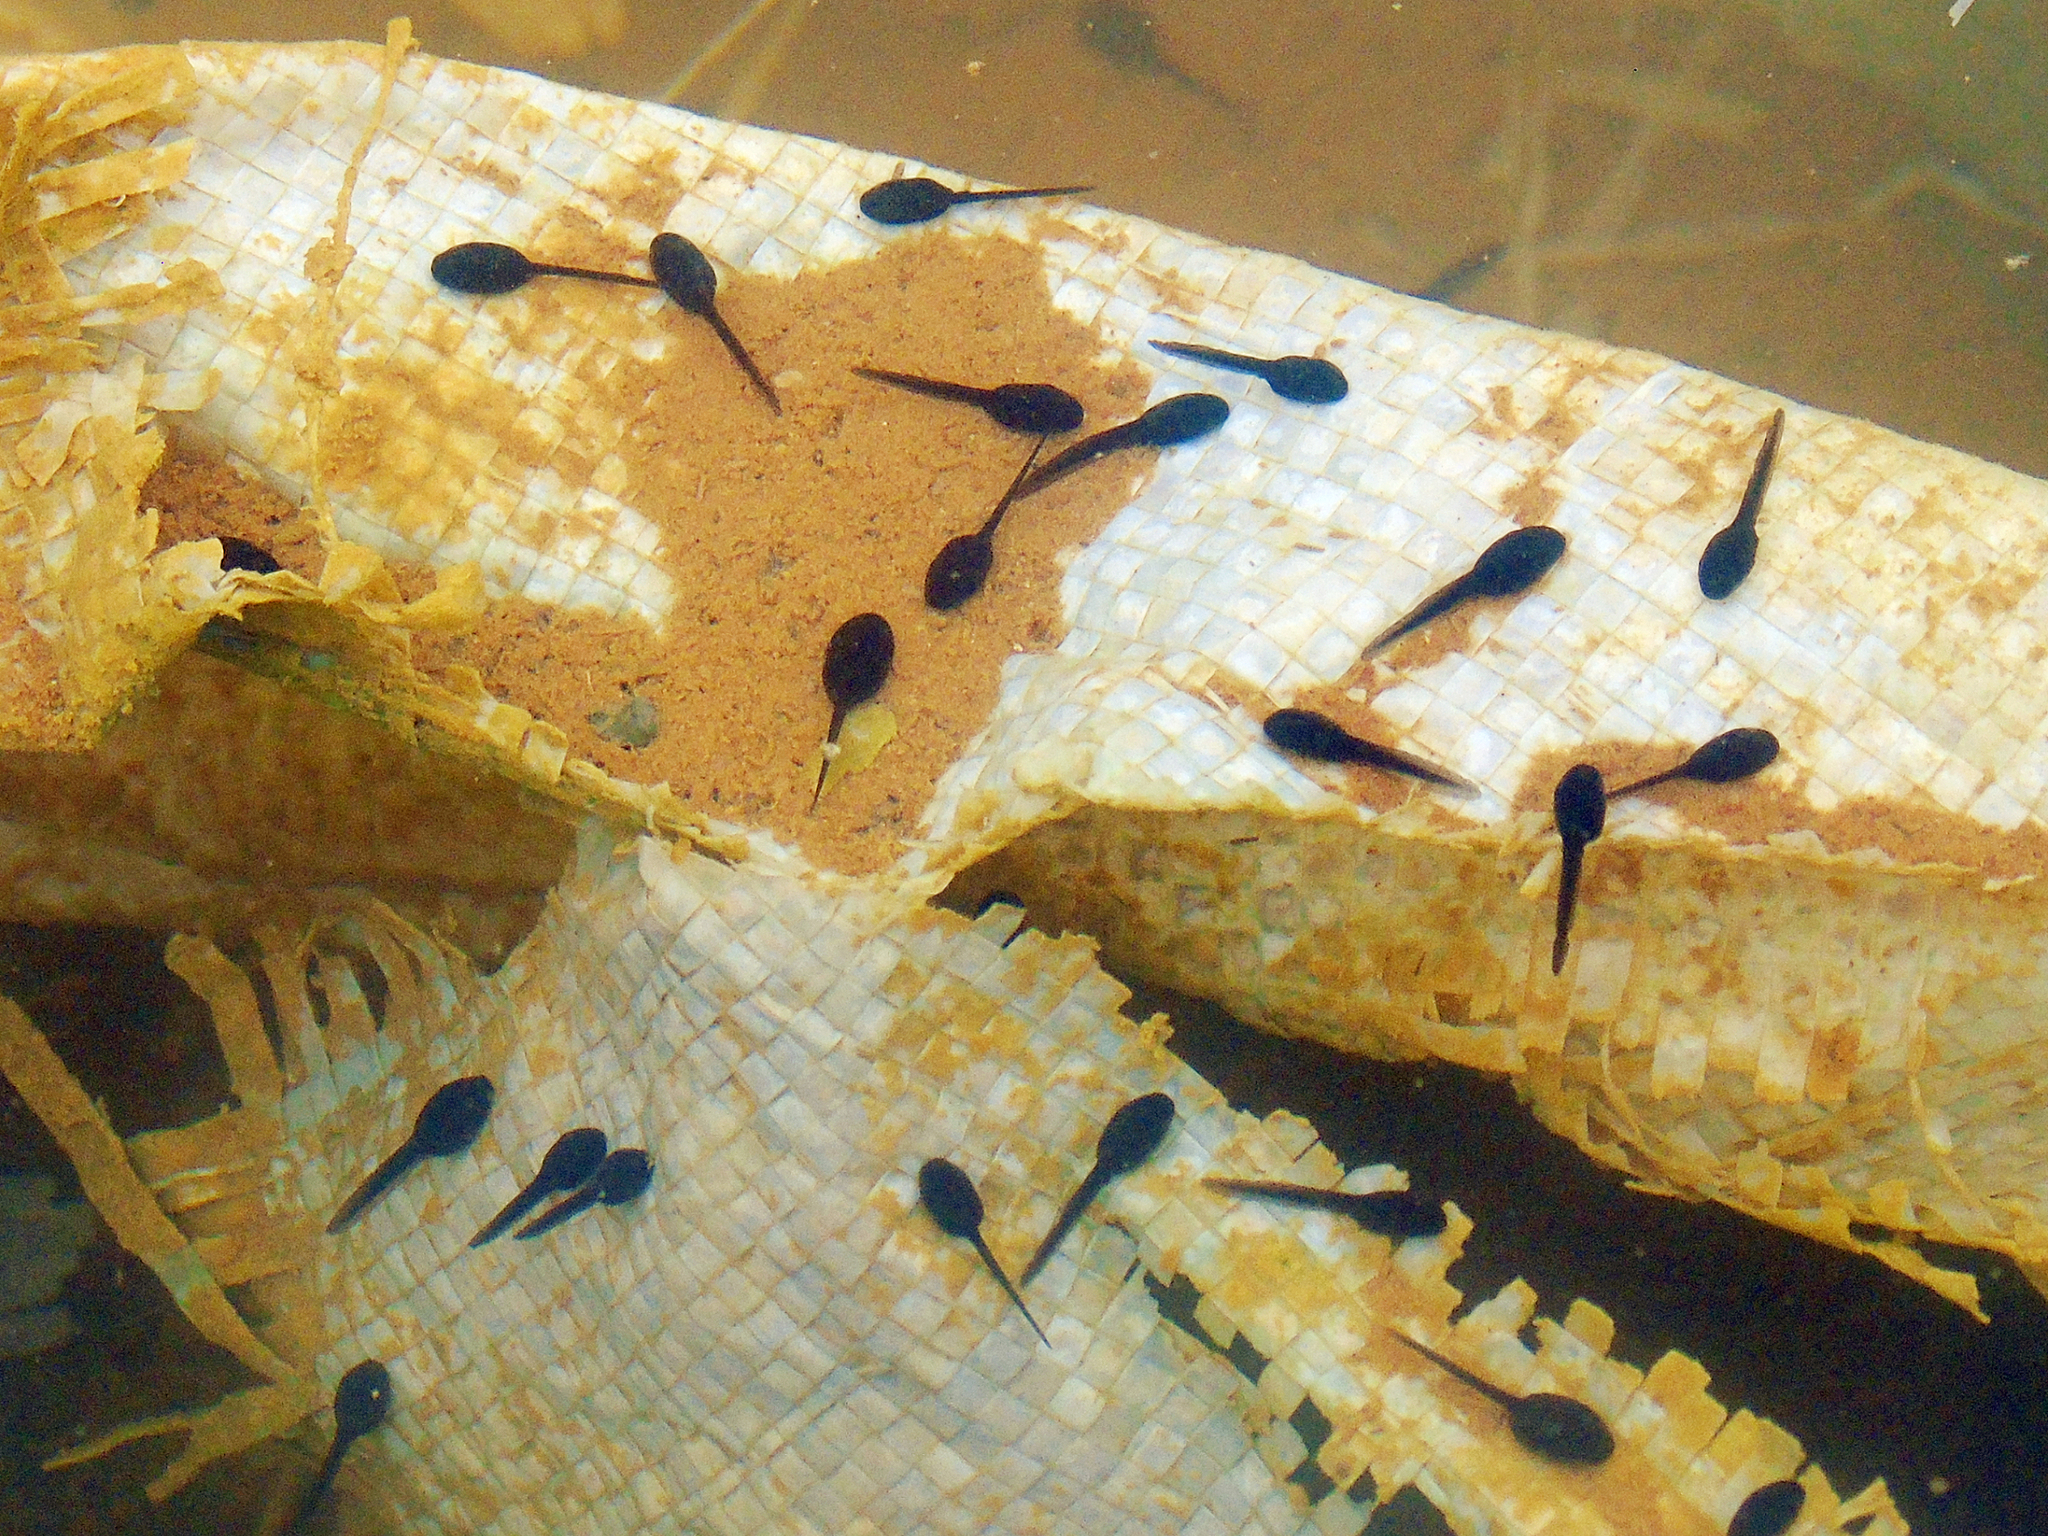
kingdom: Animalia
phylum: Chordata
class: Amphibia
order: Anura
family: Bufonidae
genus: Bufotes
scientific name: Bufotes viridis
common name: European green toad
